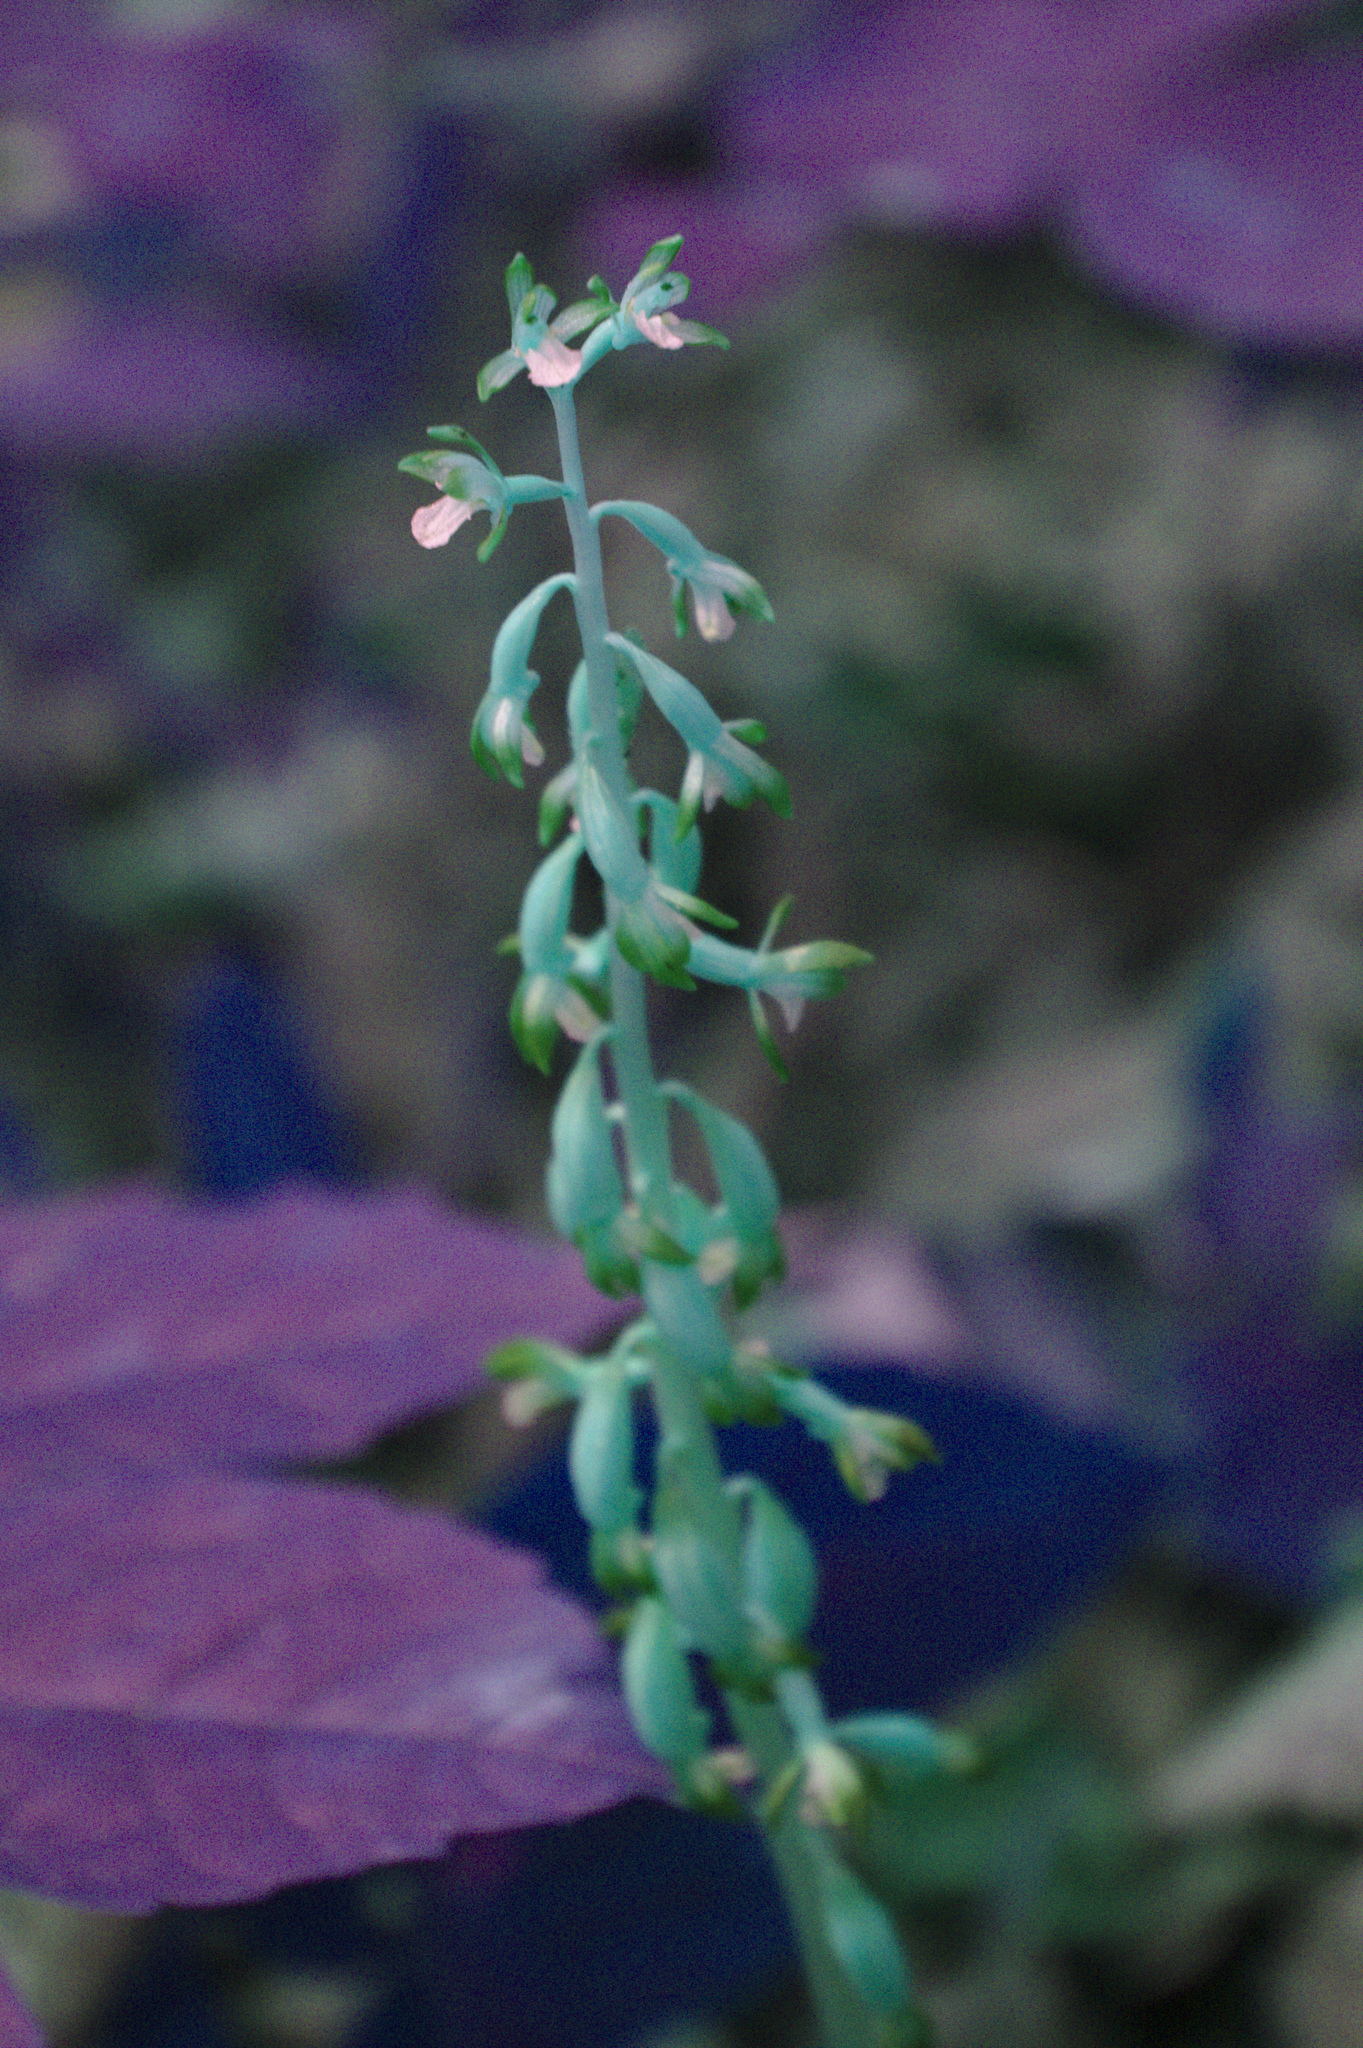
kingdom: Plantae
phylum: Tracheophyta
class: Liliopsida
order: Asparagales
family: Orchidaceae
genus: Corallorhiza
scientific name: Corallorhiza maculata
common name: Spotted coralroot
